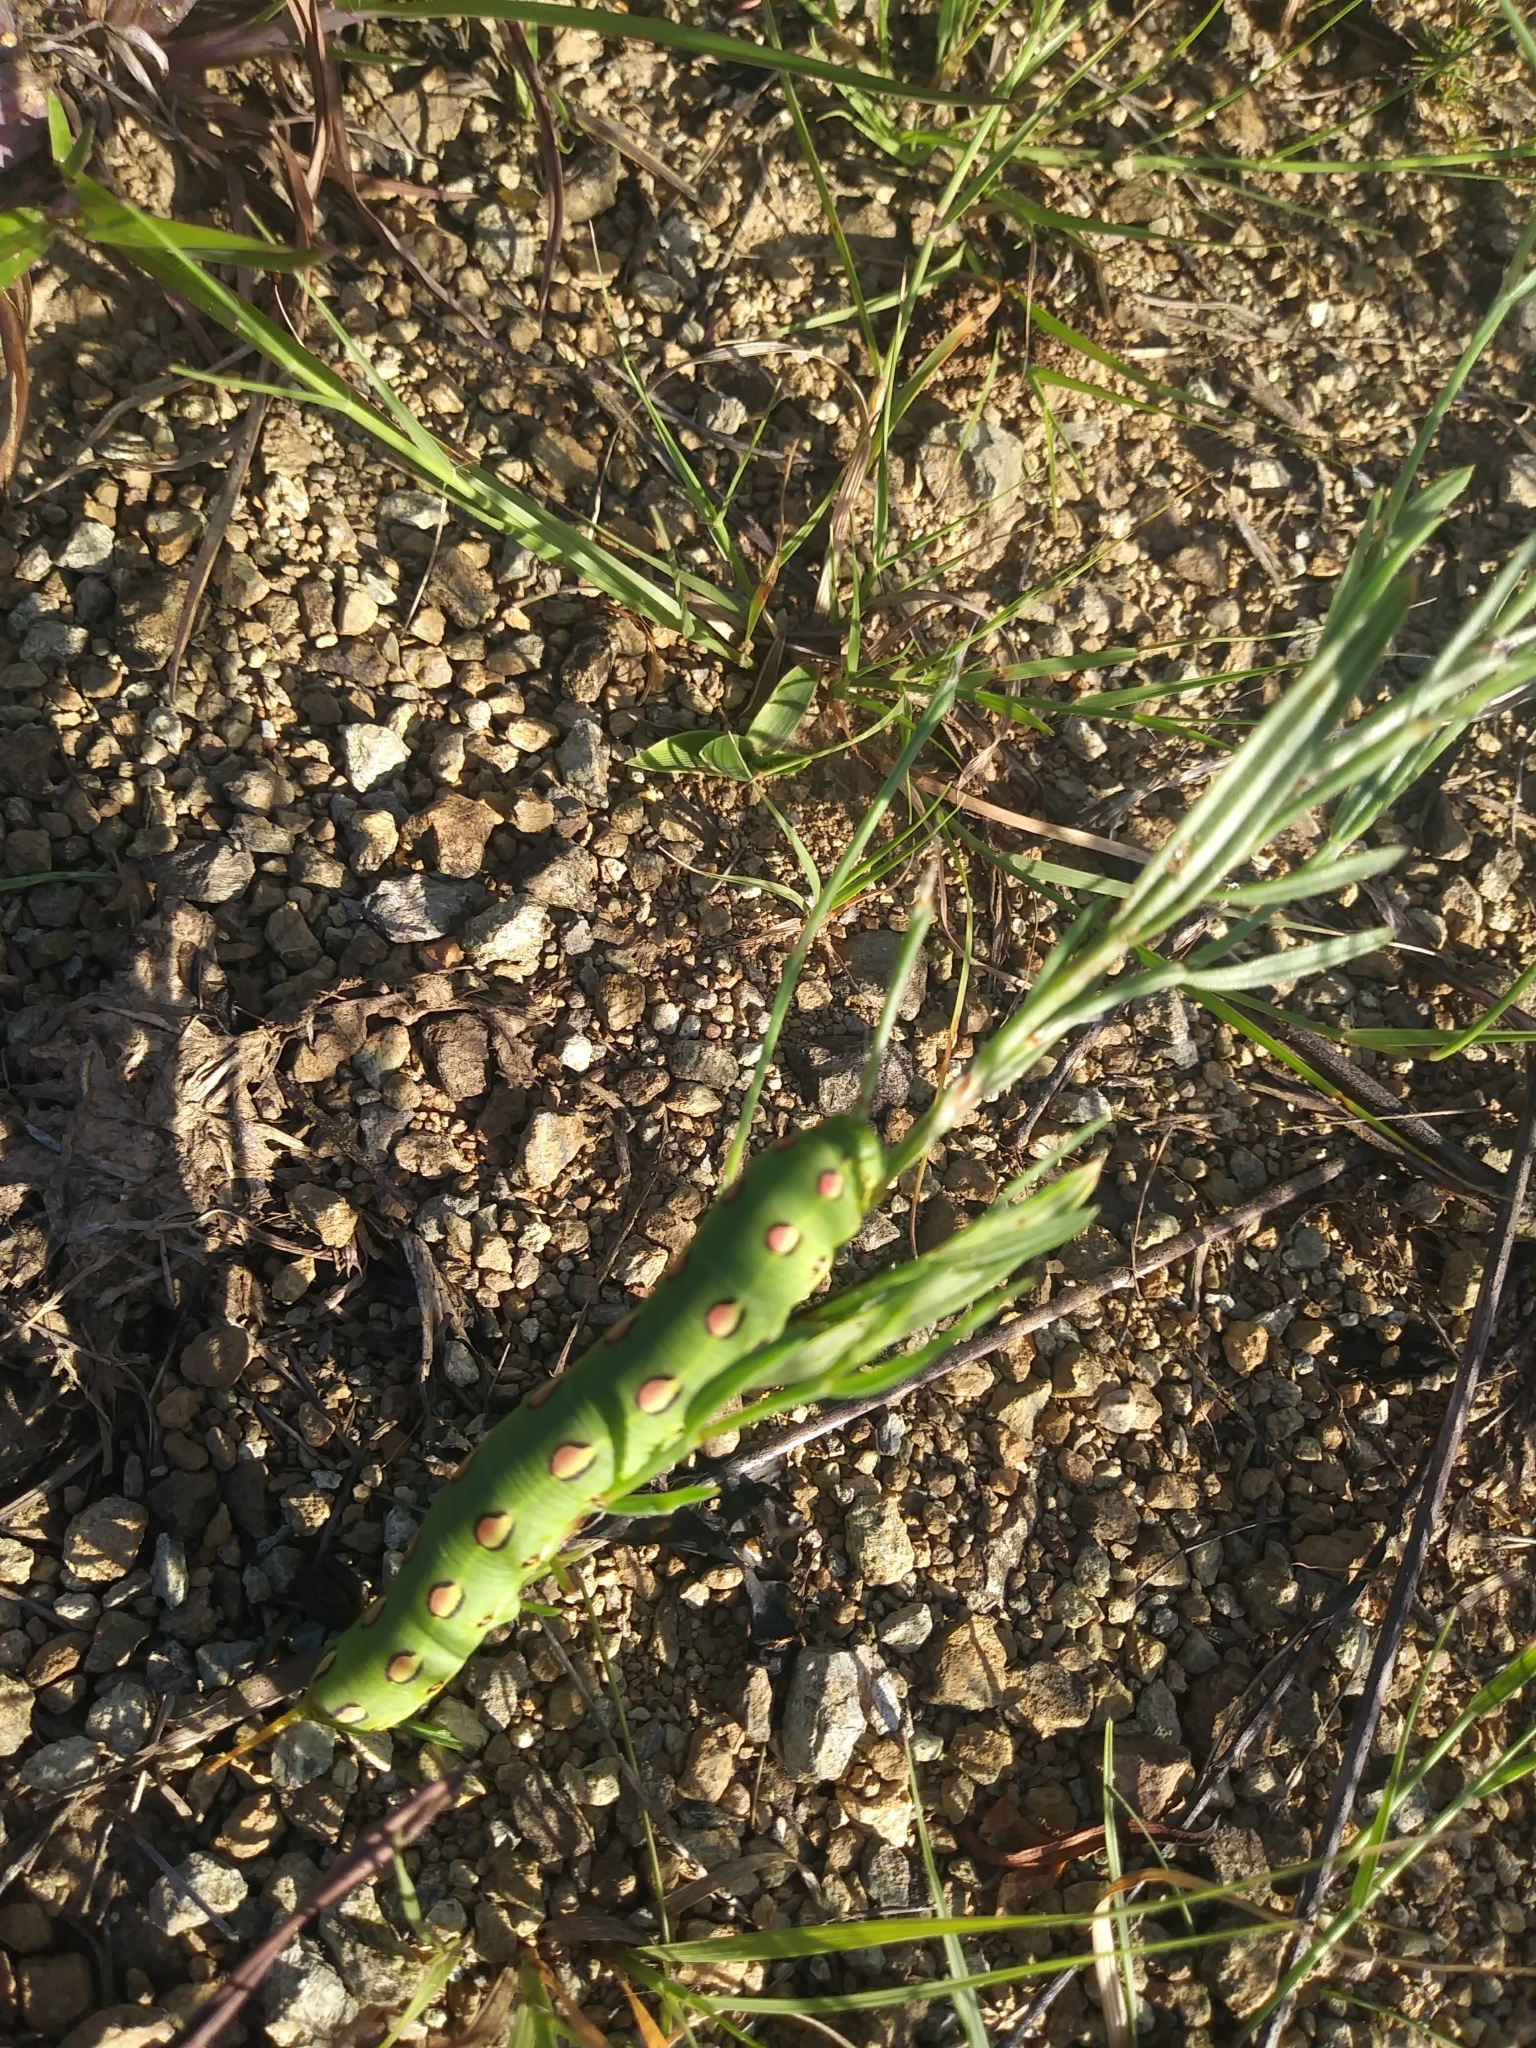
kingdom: Animalia
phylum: Arthropoda
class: Insecta
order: Lepidoptera
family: Sphingidae
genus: Hyles
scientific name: Hyles lineata
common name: White-lined sphinx
